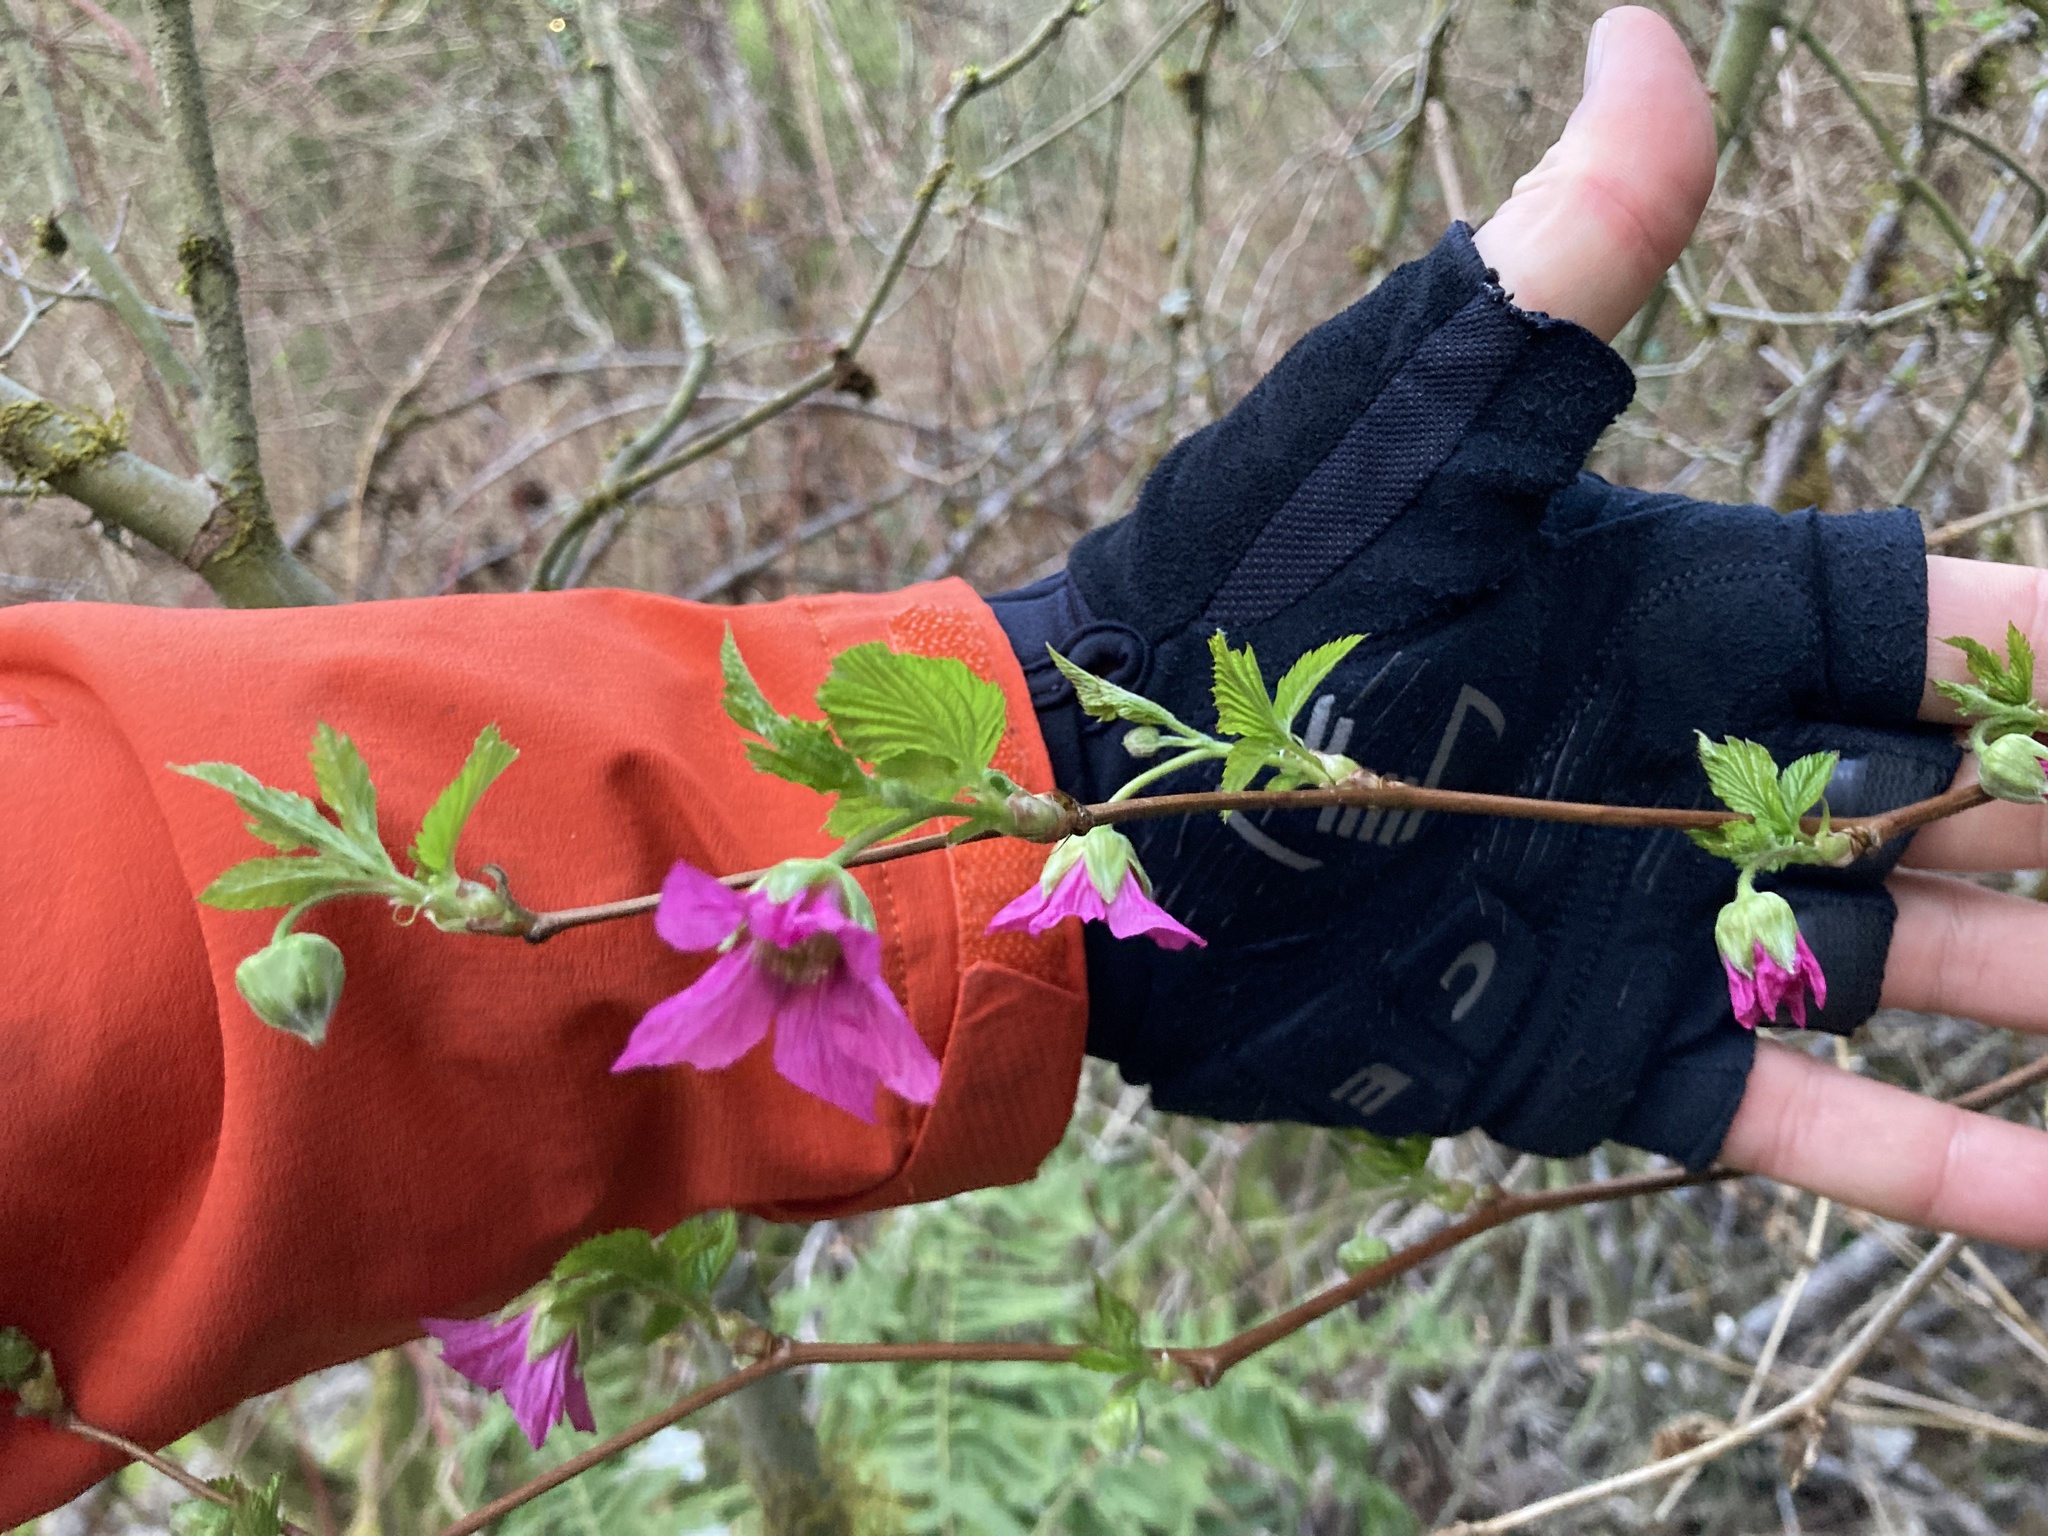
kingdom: Plantae
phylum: Tracheophyta
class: Magnoliopsida
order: Rosales
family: Rosaceae
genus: Rubus
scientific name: Rubus spectabilis
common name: Salmonberry
